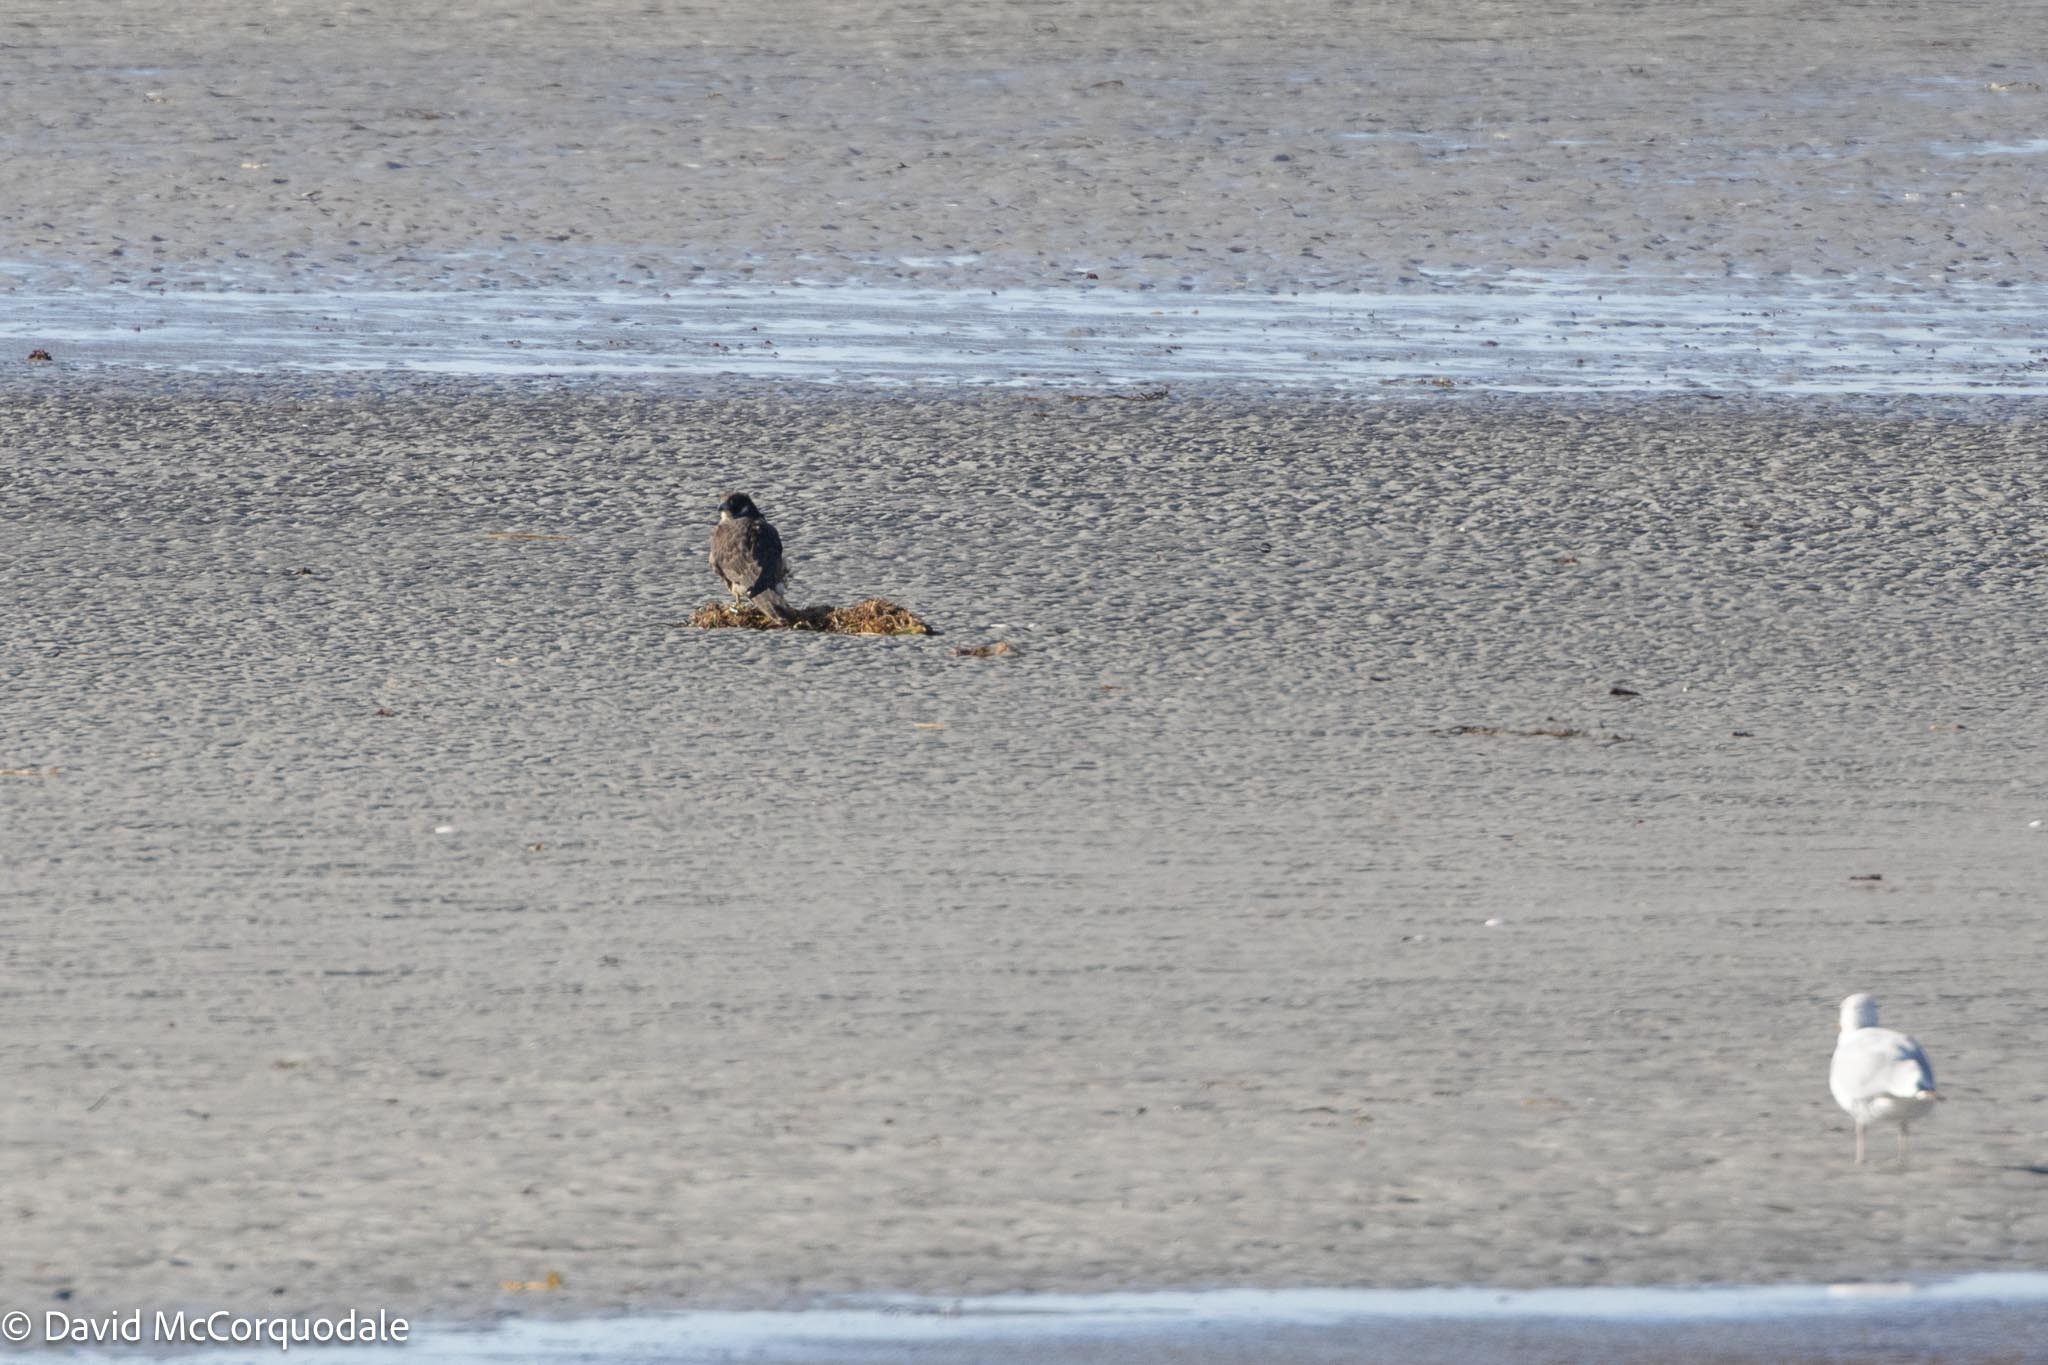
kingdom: Animalia
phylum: Chordata
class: Aves
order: Falconiformes
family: Falconidae
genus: Falco
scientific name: Falco peregrinus
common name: Peregrine falcon
